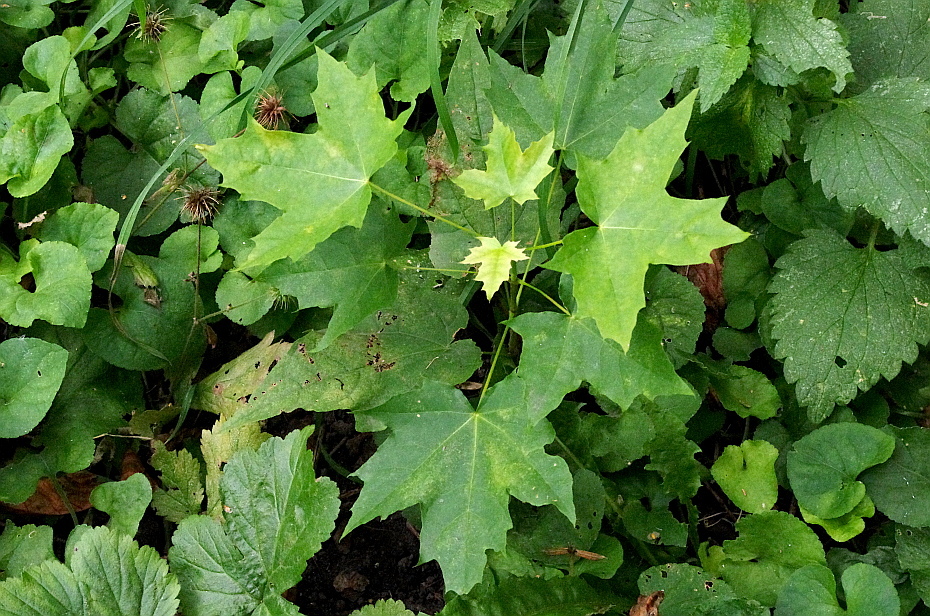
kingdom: Plantae
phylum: Tracheophyta
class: Magnoliopsida
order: Sapindales
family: Sapindaceae
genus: Acer
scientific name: Acer platanoides
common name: Norway maple
